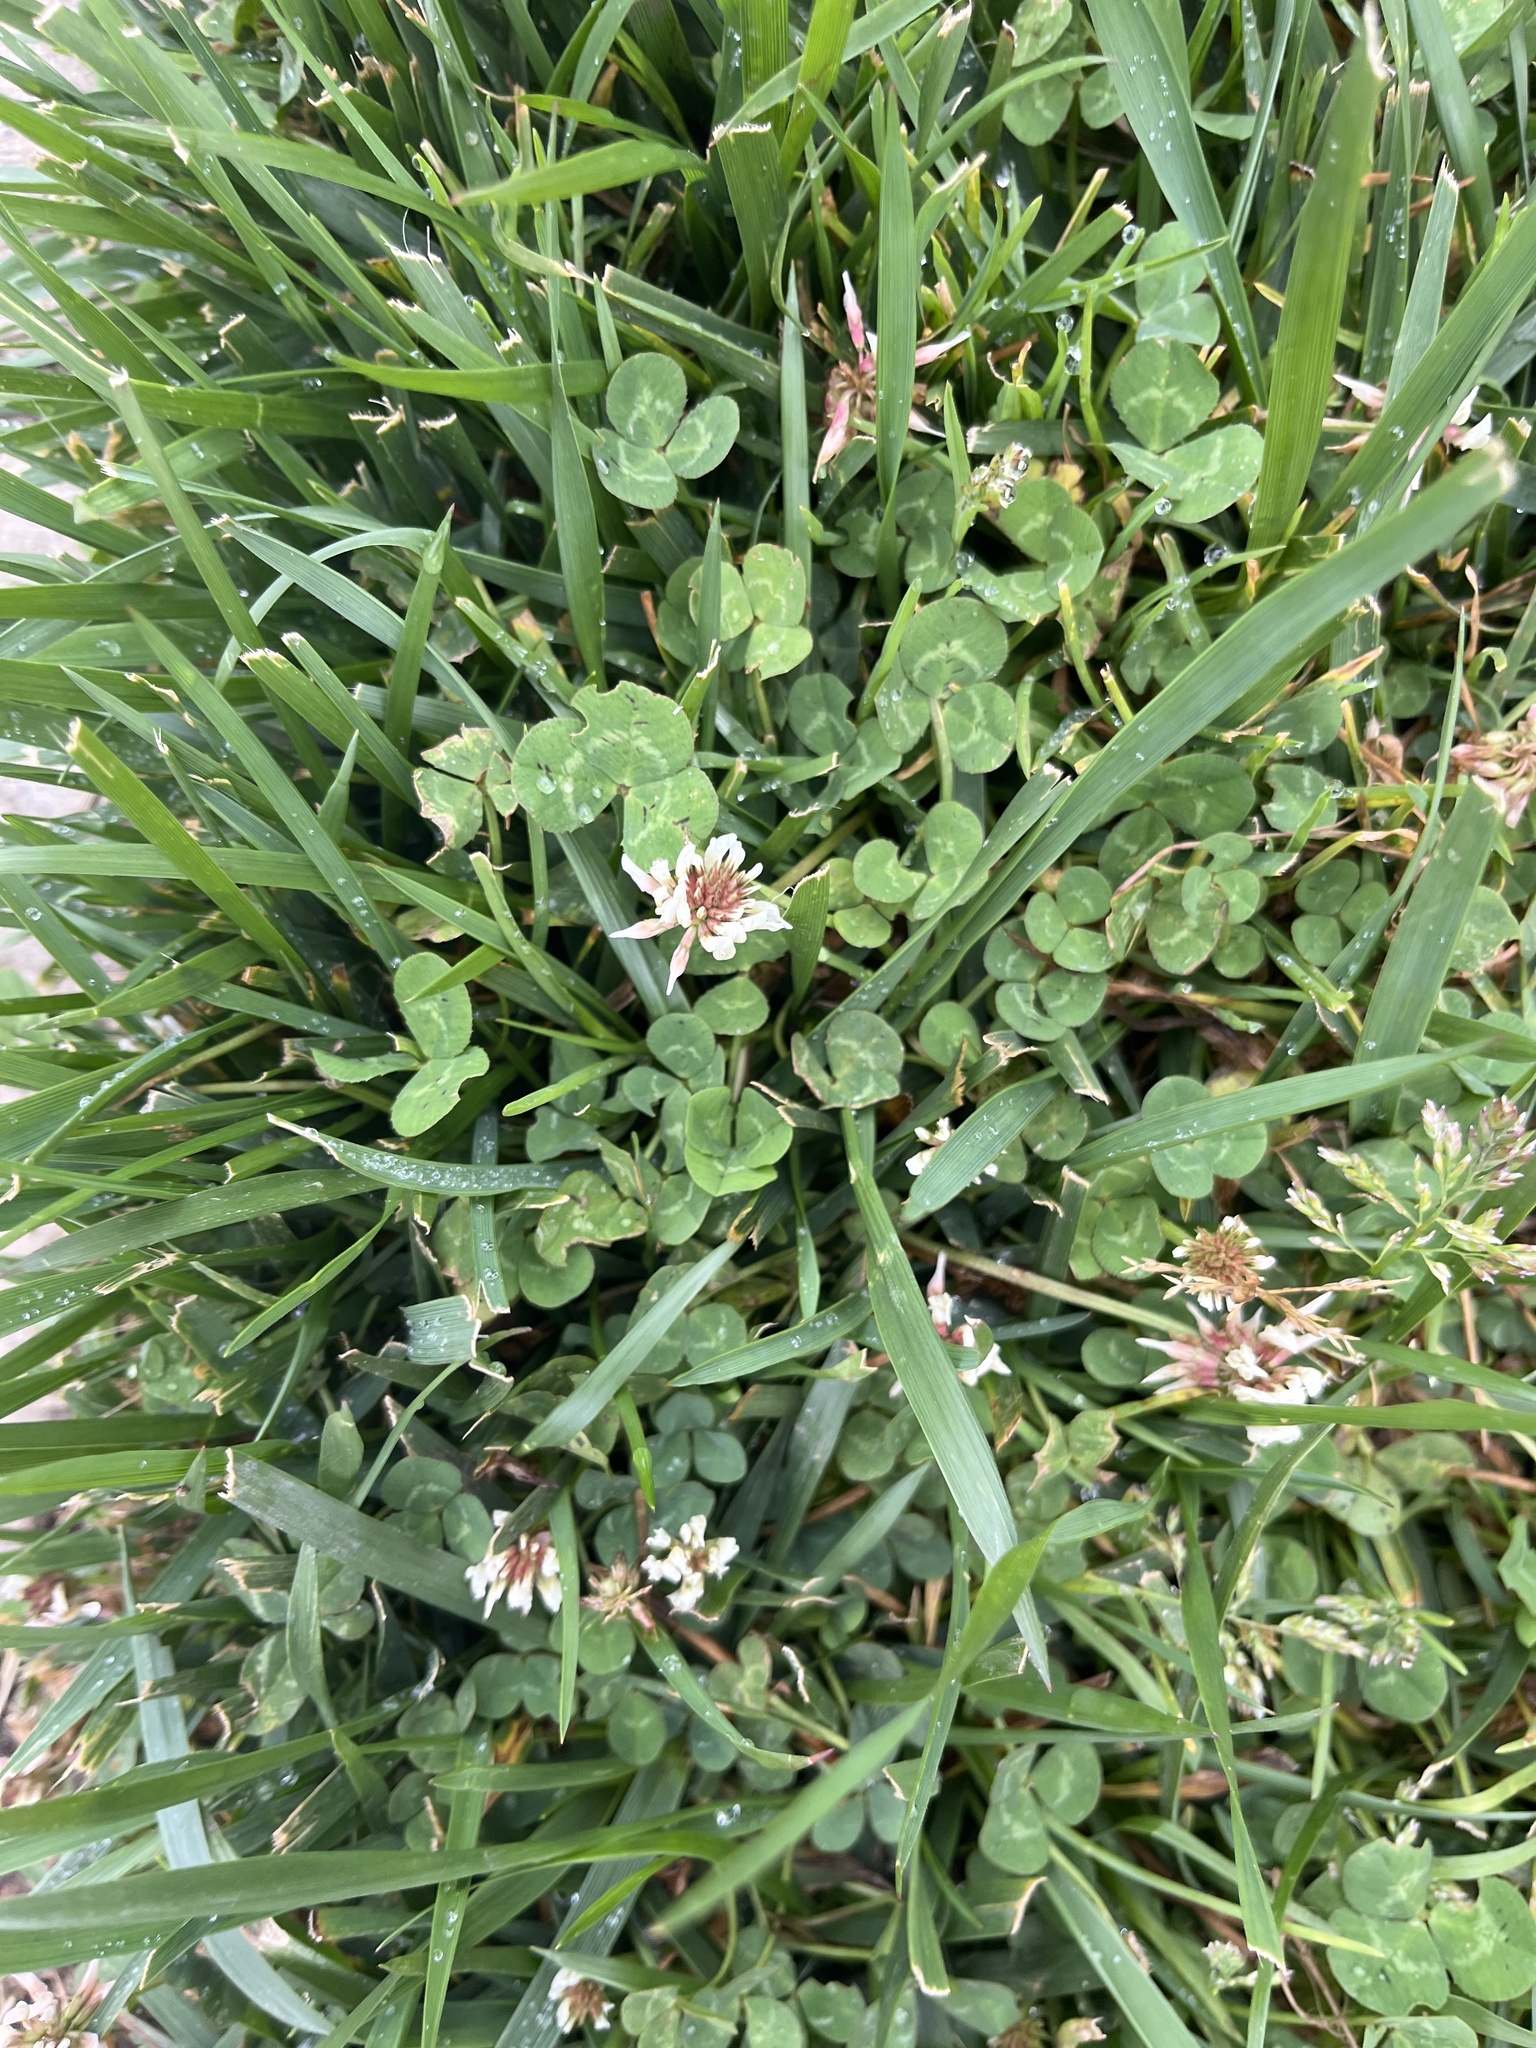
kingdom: Plantae
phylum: Tracheophyta
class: Magnoliopsida
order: Fabales
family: Fabaceae
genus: Trifolium
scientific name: Trifolium repens
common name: White clover
